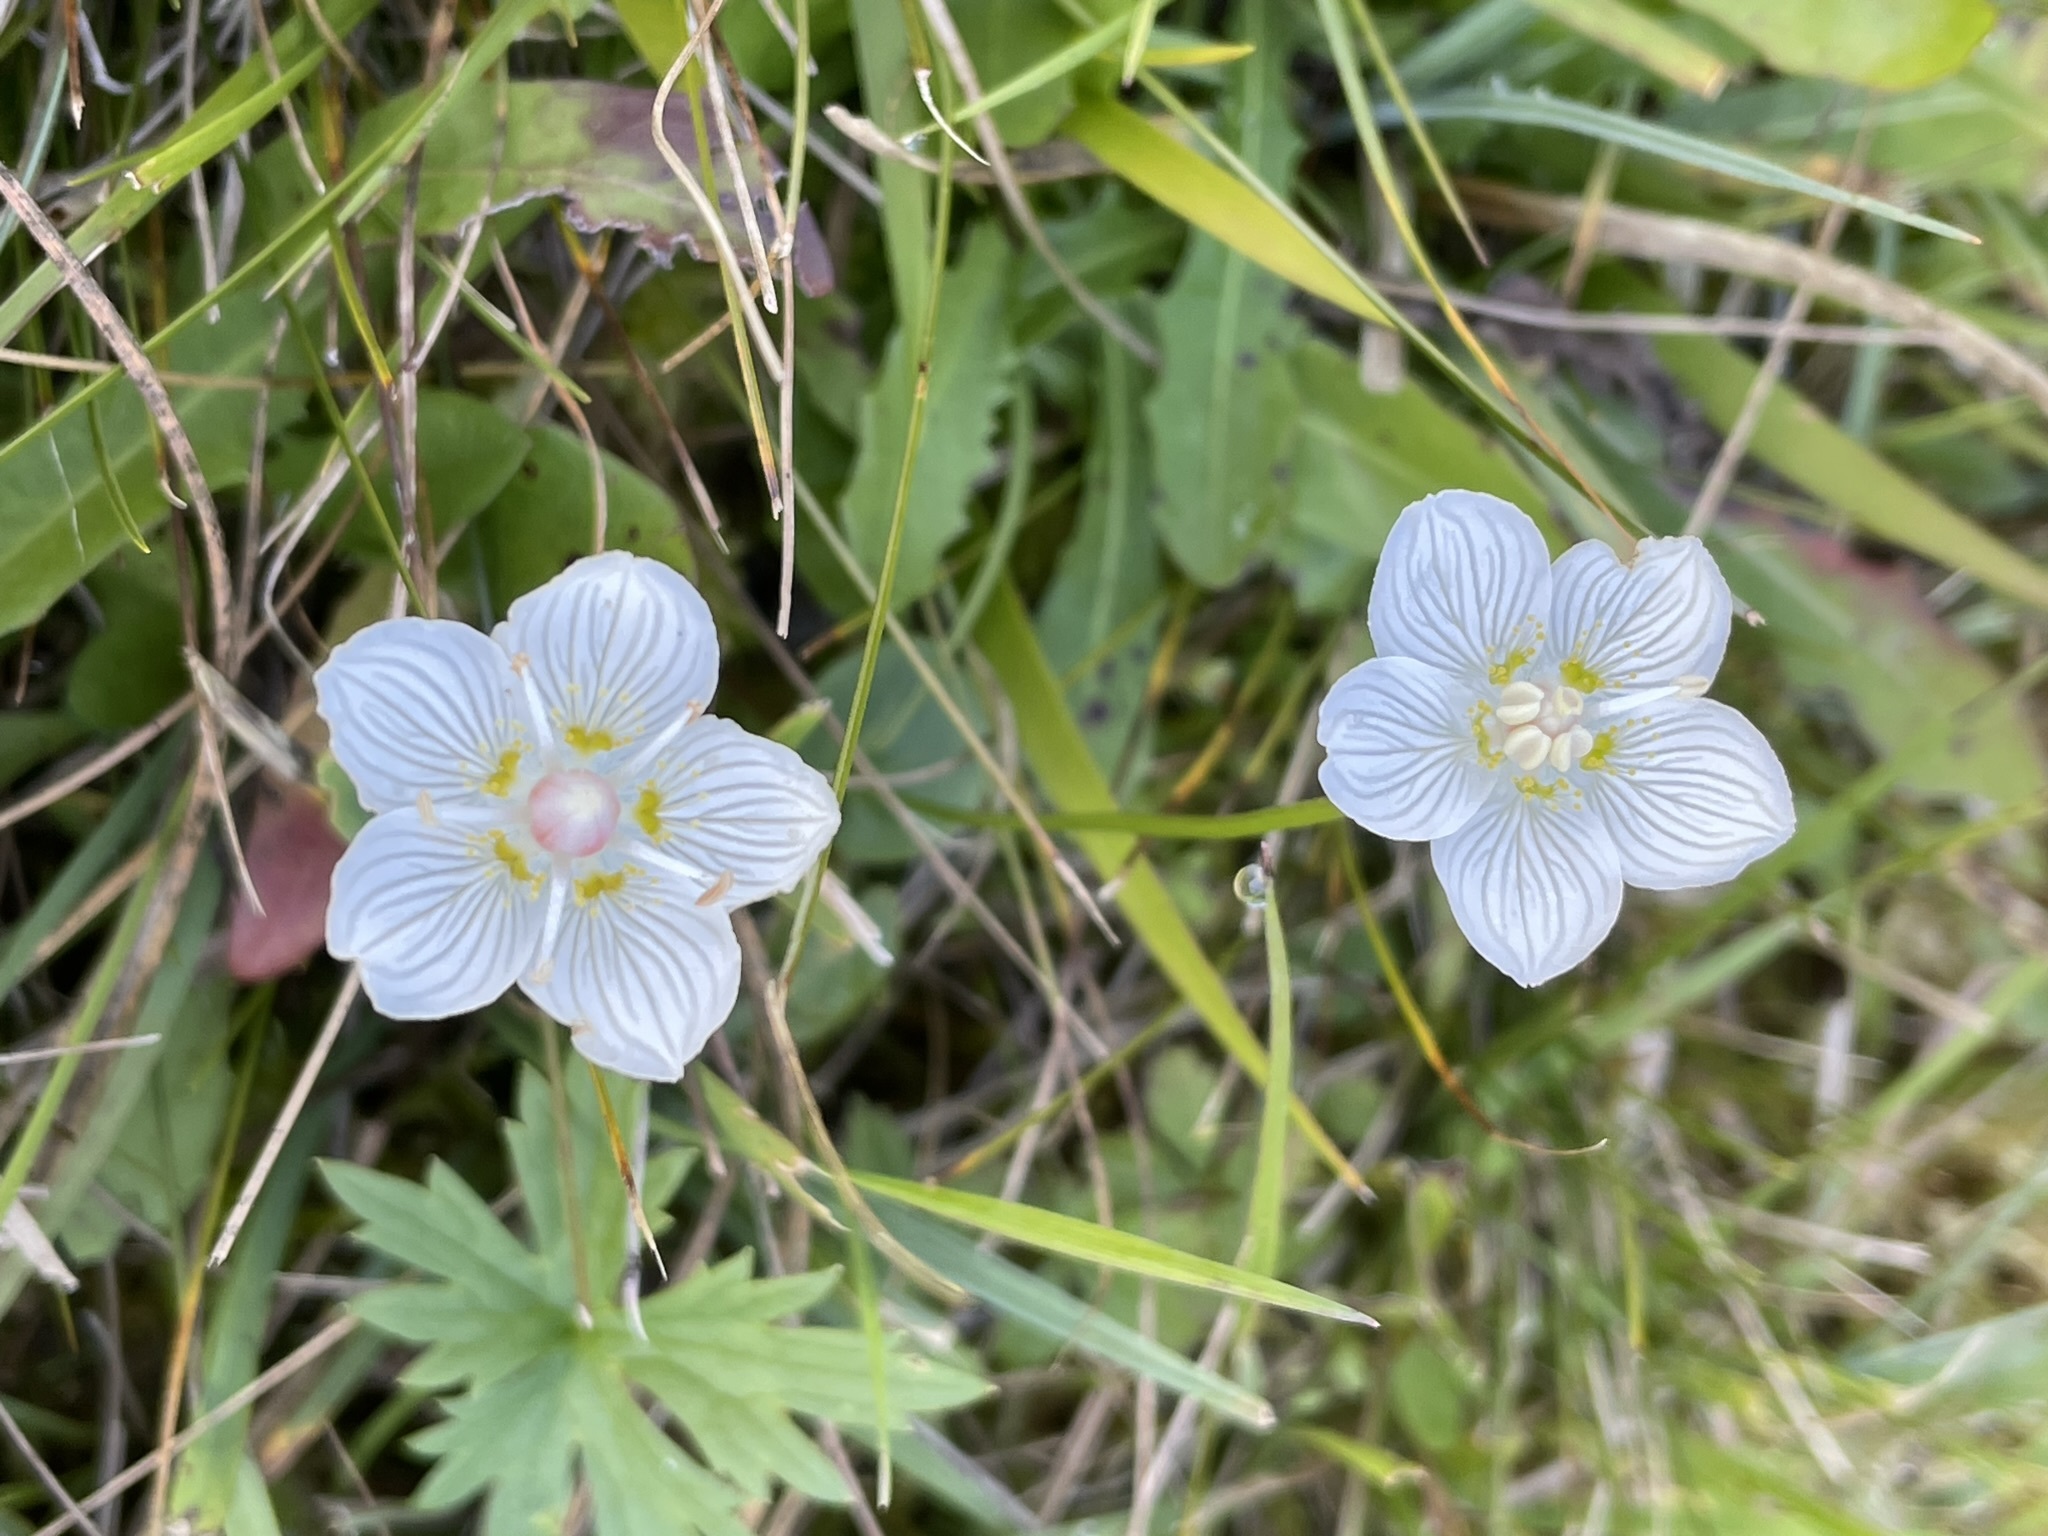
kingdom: Plantae
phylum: Tracheophyta
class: Magnoliopsida
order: Celastrales
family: Parnassiaceae
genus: Parnassia
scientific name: Parnassia palustris
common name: Grass-of-parnassus
